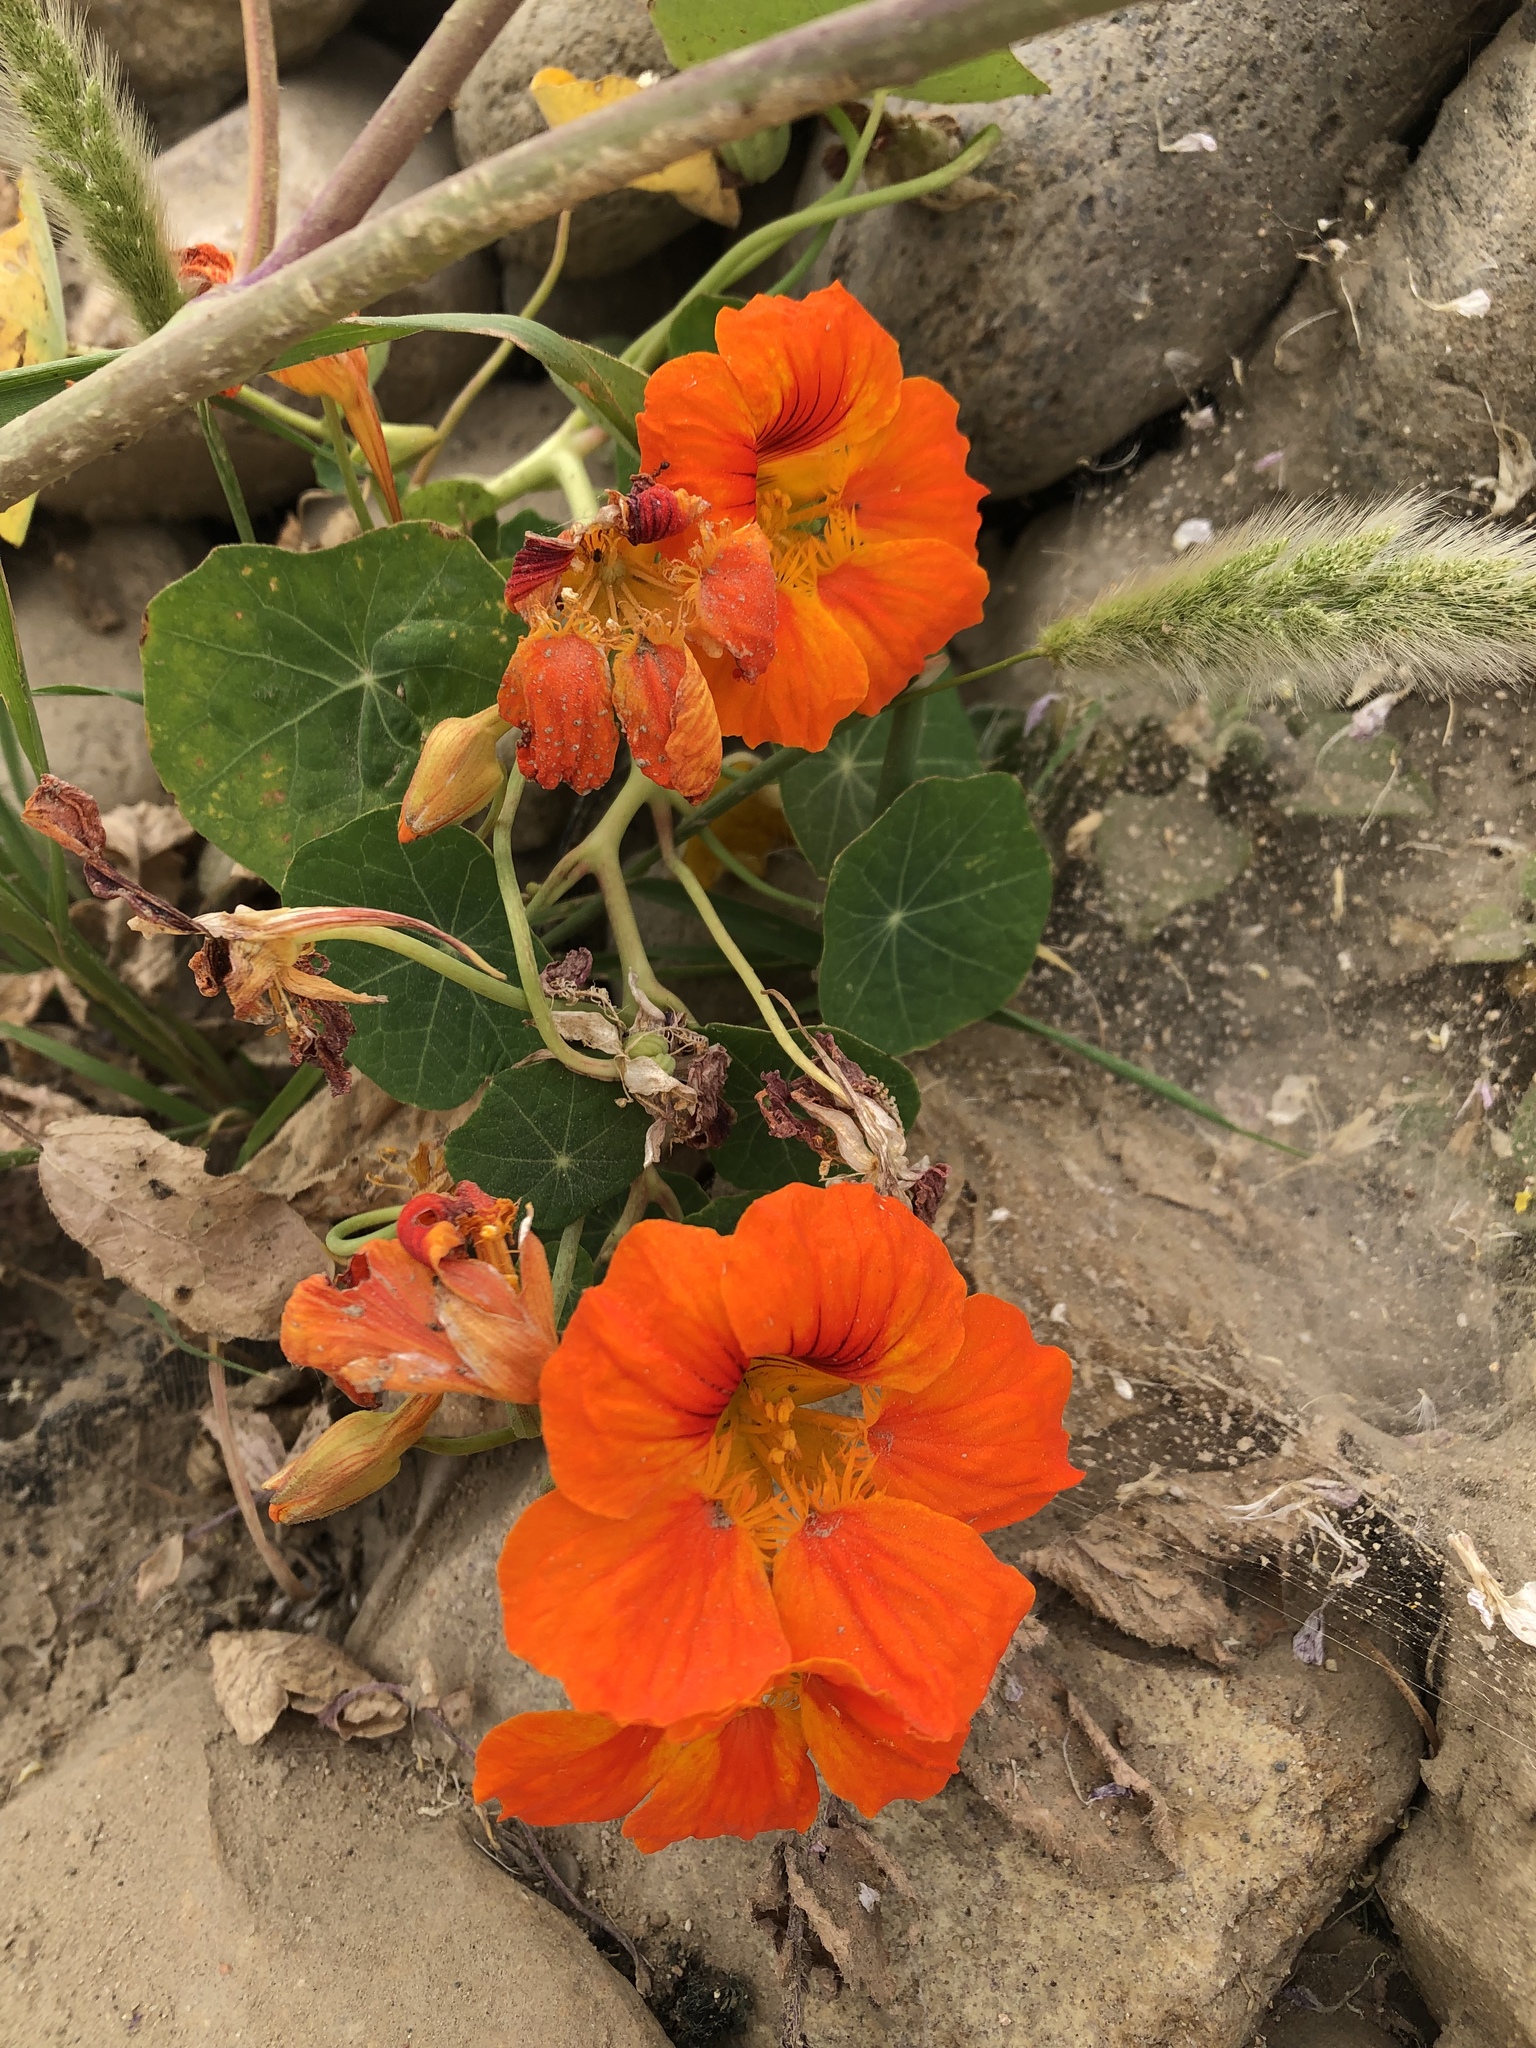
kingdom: Plantae
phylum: Tracheophyta
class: Magnoliopsida
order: Brassicales
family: Tropaeolaceae
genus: Tropaeolum
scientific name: Tropaeolum majus
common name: Nasturtium
